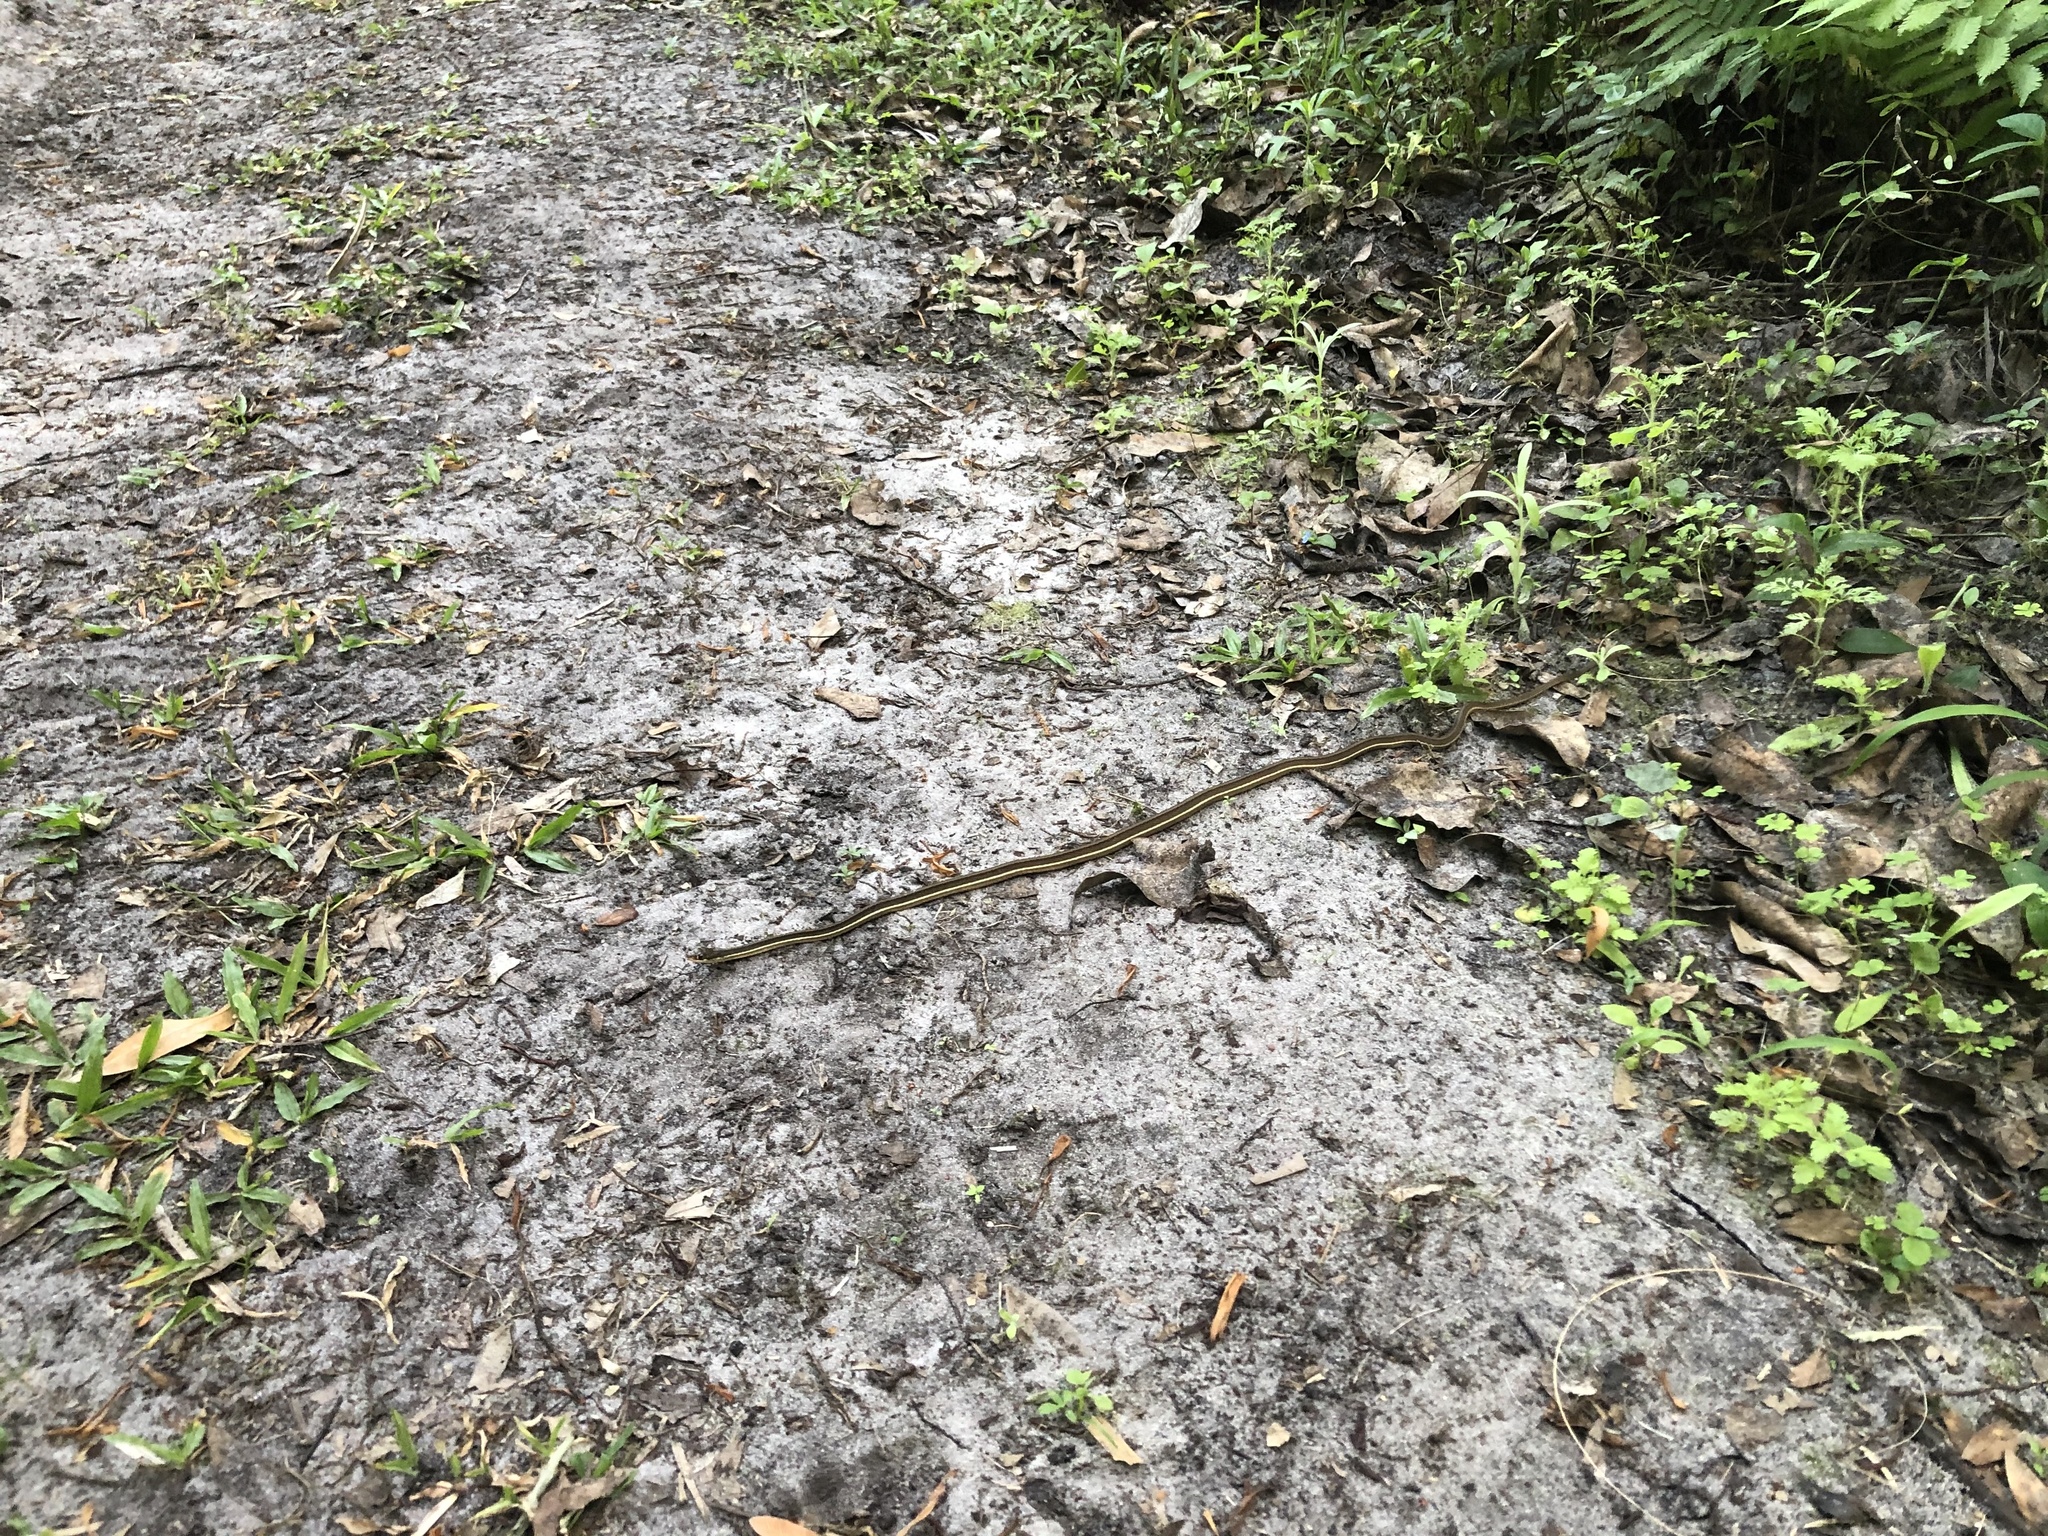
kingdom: Animalia
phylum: Chordata
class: Squamata
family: Colubridae
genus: Thamnophis
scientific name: Thamnophis saurita
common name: Eastern ribbonsnake
